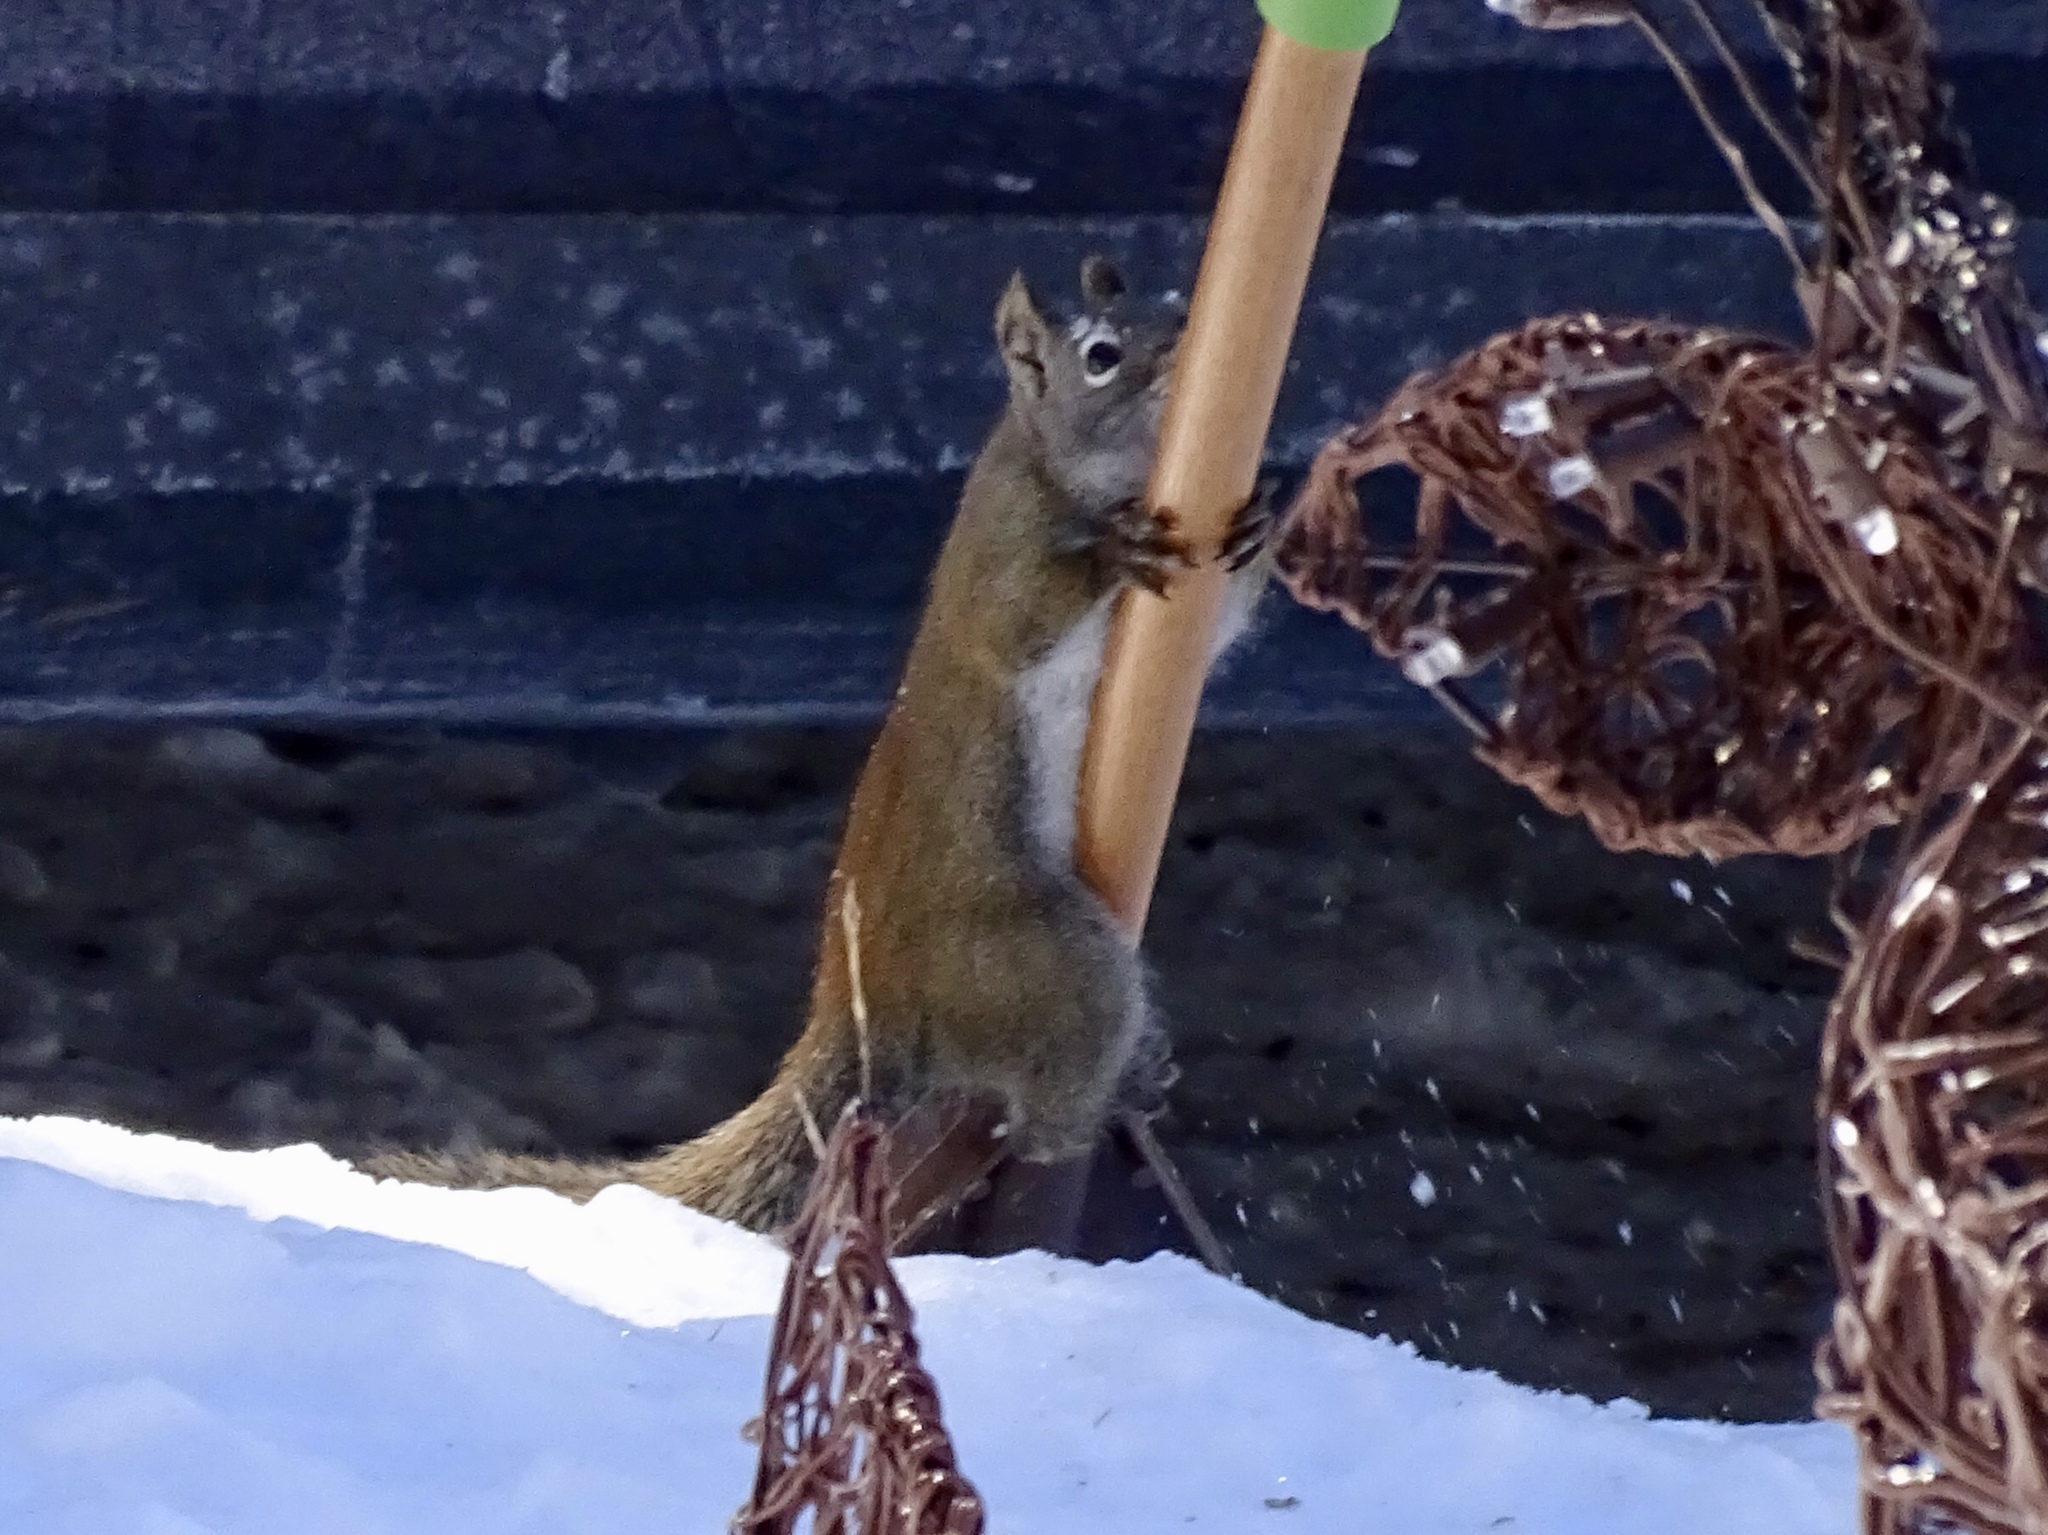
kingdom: Animalia
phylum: Chordata
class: Mammalia
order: Rodentia
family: Sciuridae
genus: Tamiasciurus
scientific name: Tamiasciurus hudsonicus
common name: Red squirrel
